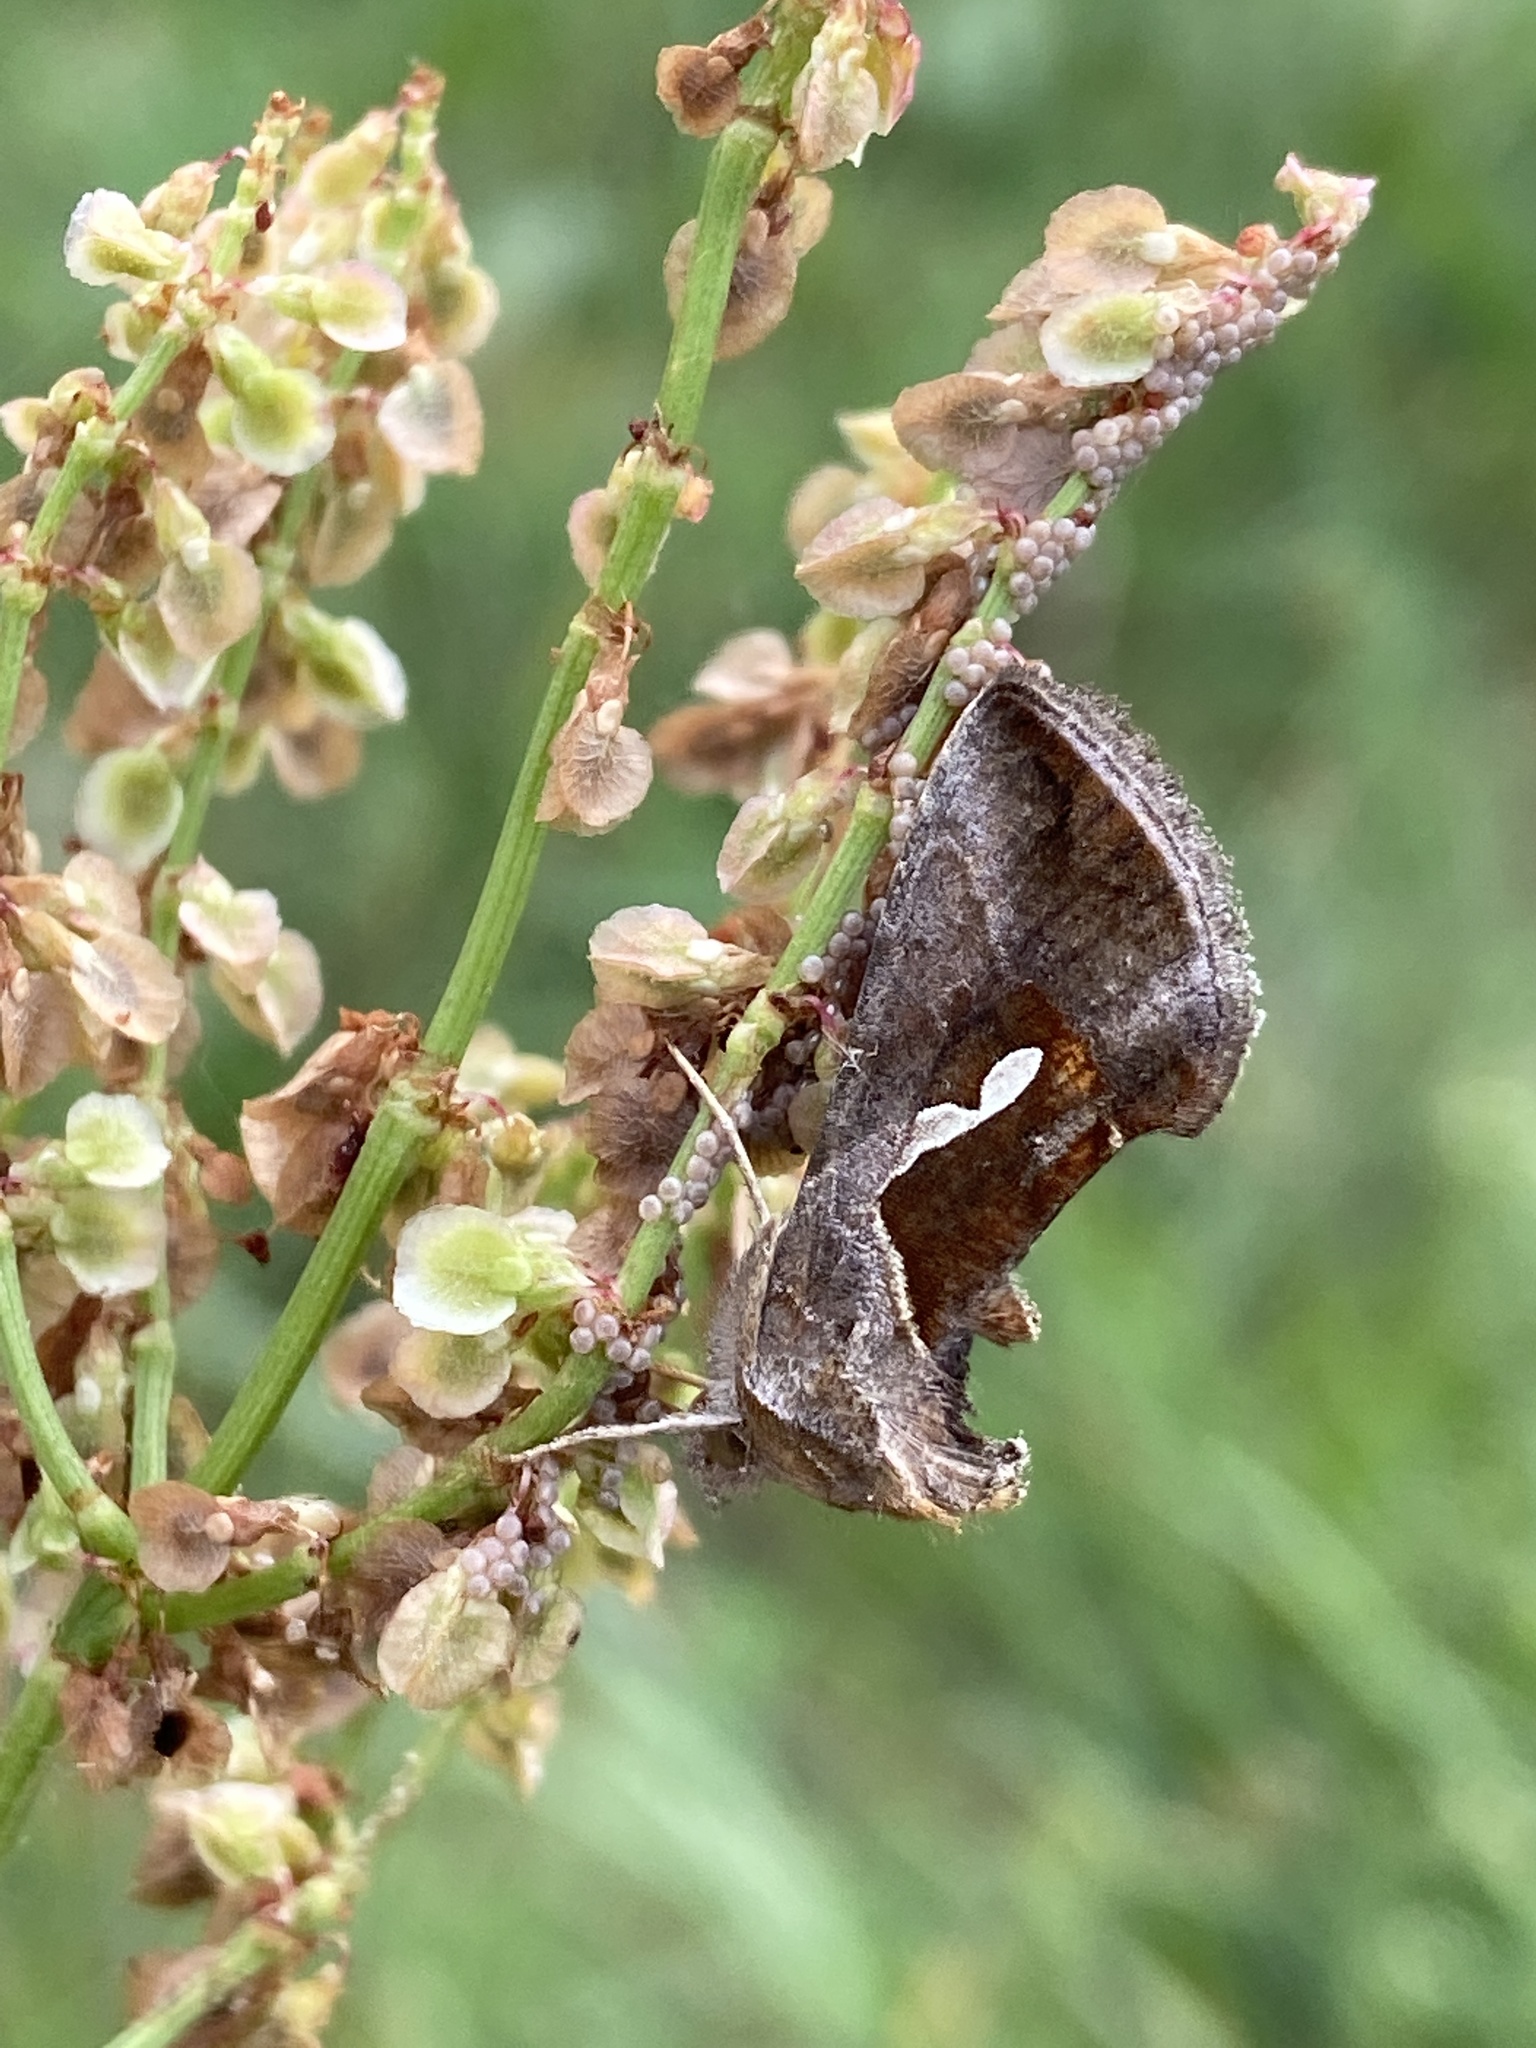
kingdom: Animalia
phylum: Arthropoda
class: Insecta
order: Lepidoptera
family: Noctuidae
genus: Macdunnoughia
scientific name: Macdunnoughia confusa
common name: Dewick's plusia
